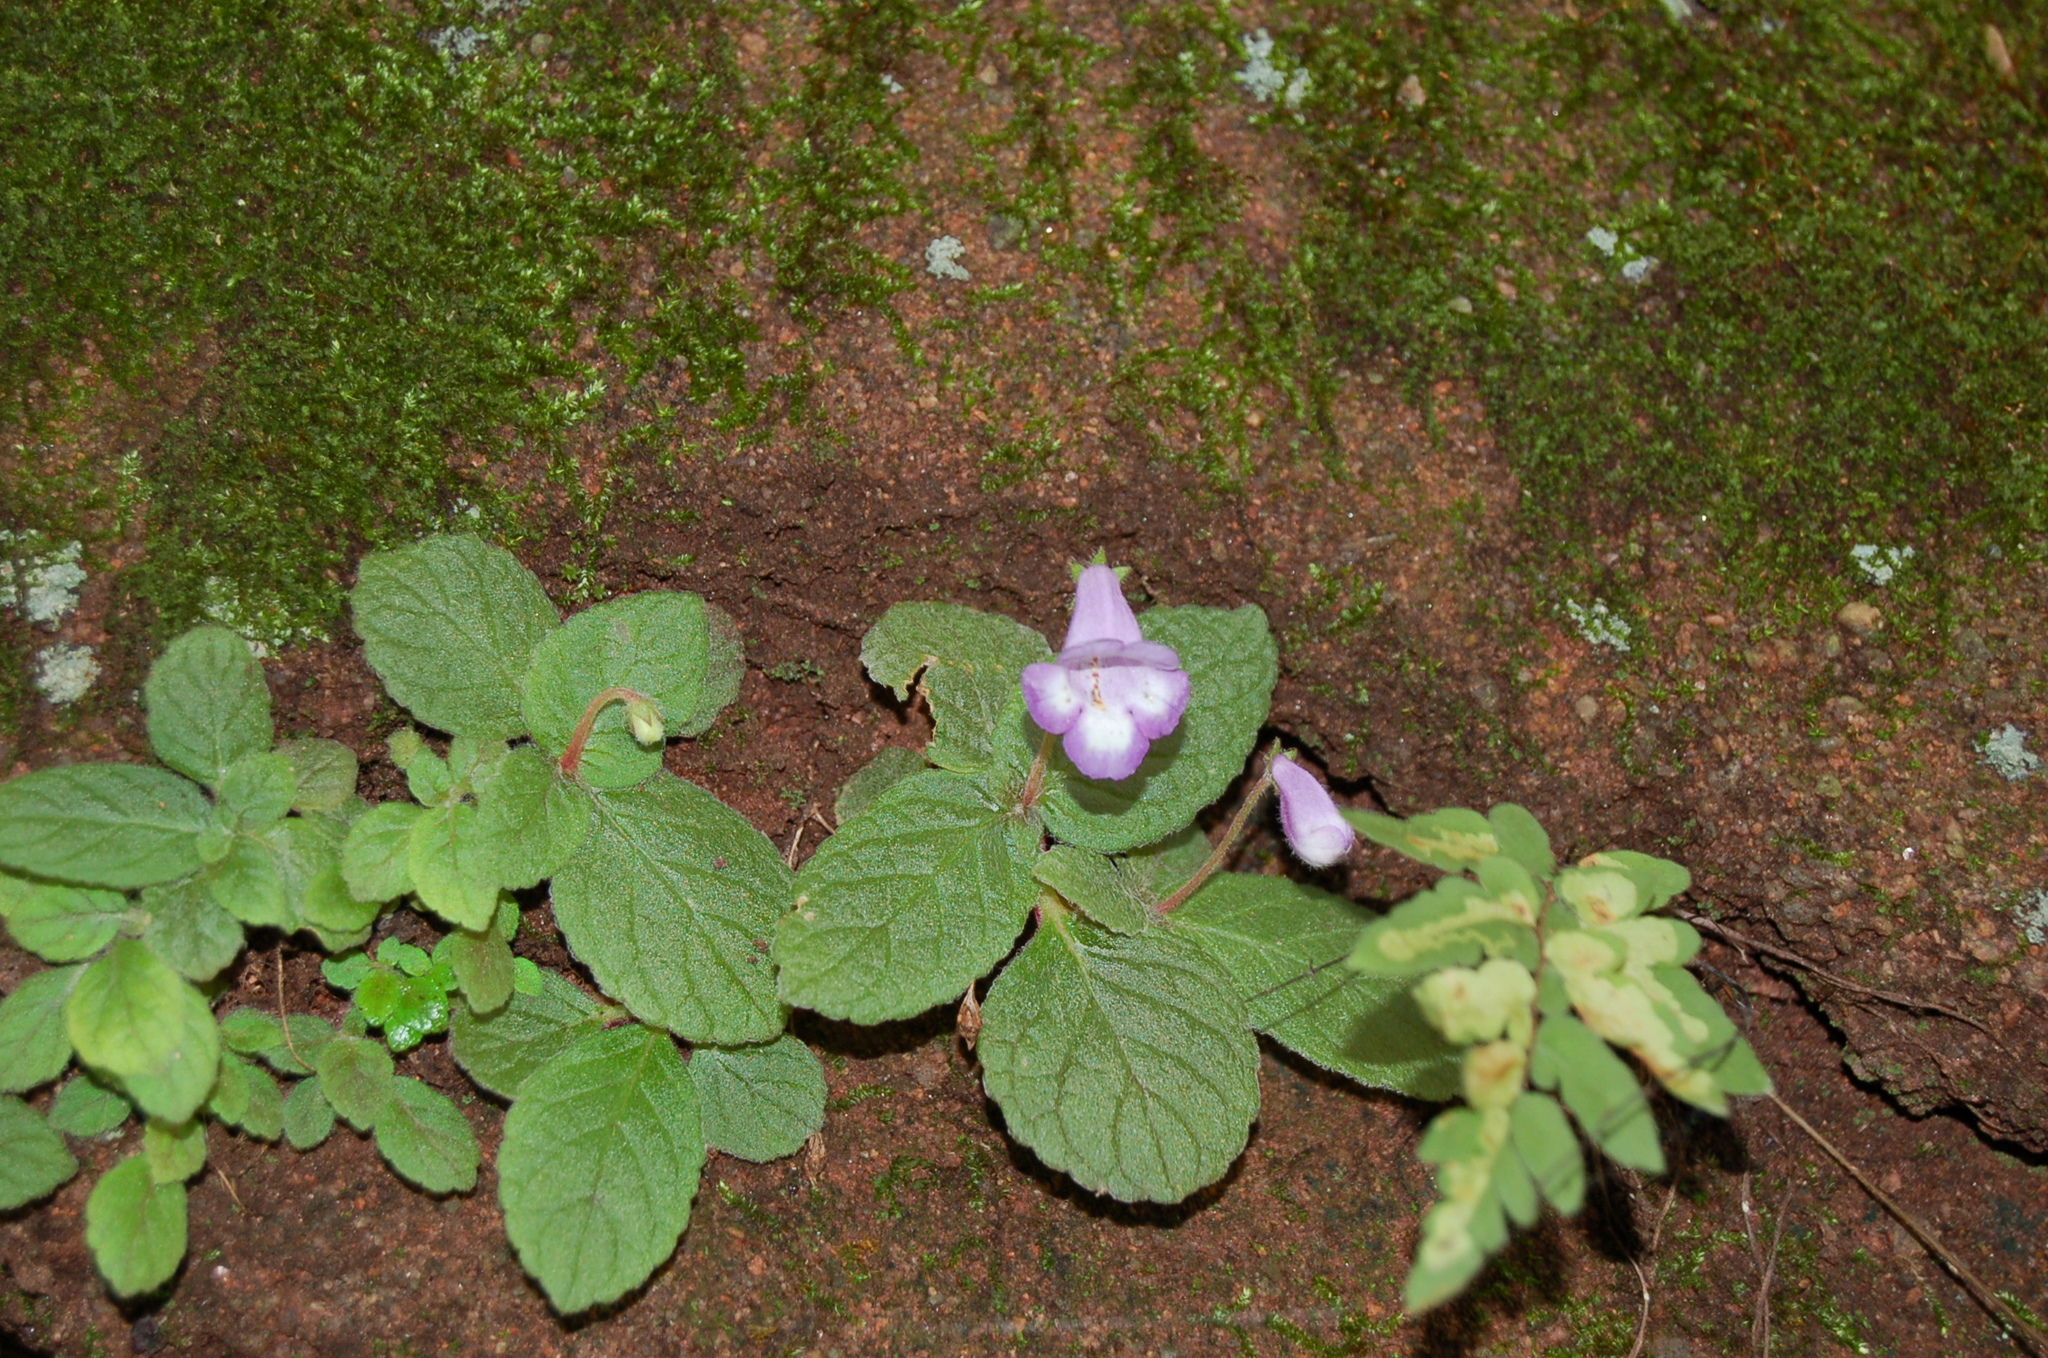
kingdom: Plantae
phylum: Tracheophyta
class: Magnoliopsida
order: Lamiales
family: Gesneriaceae
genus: Eucodonia
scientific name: Eucodonia andrieuxii
